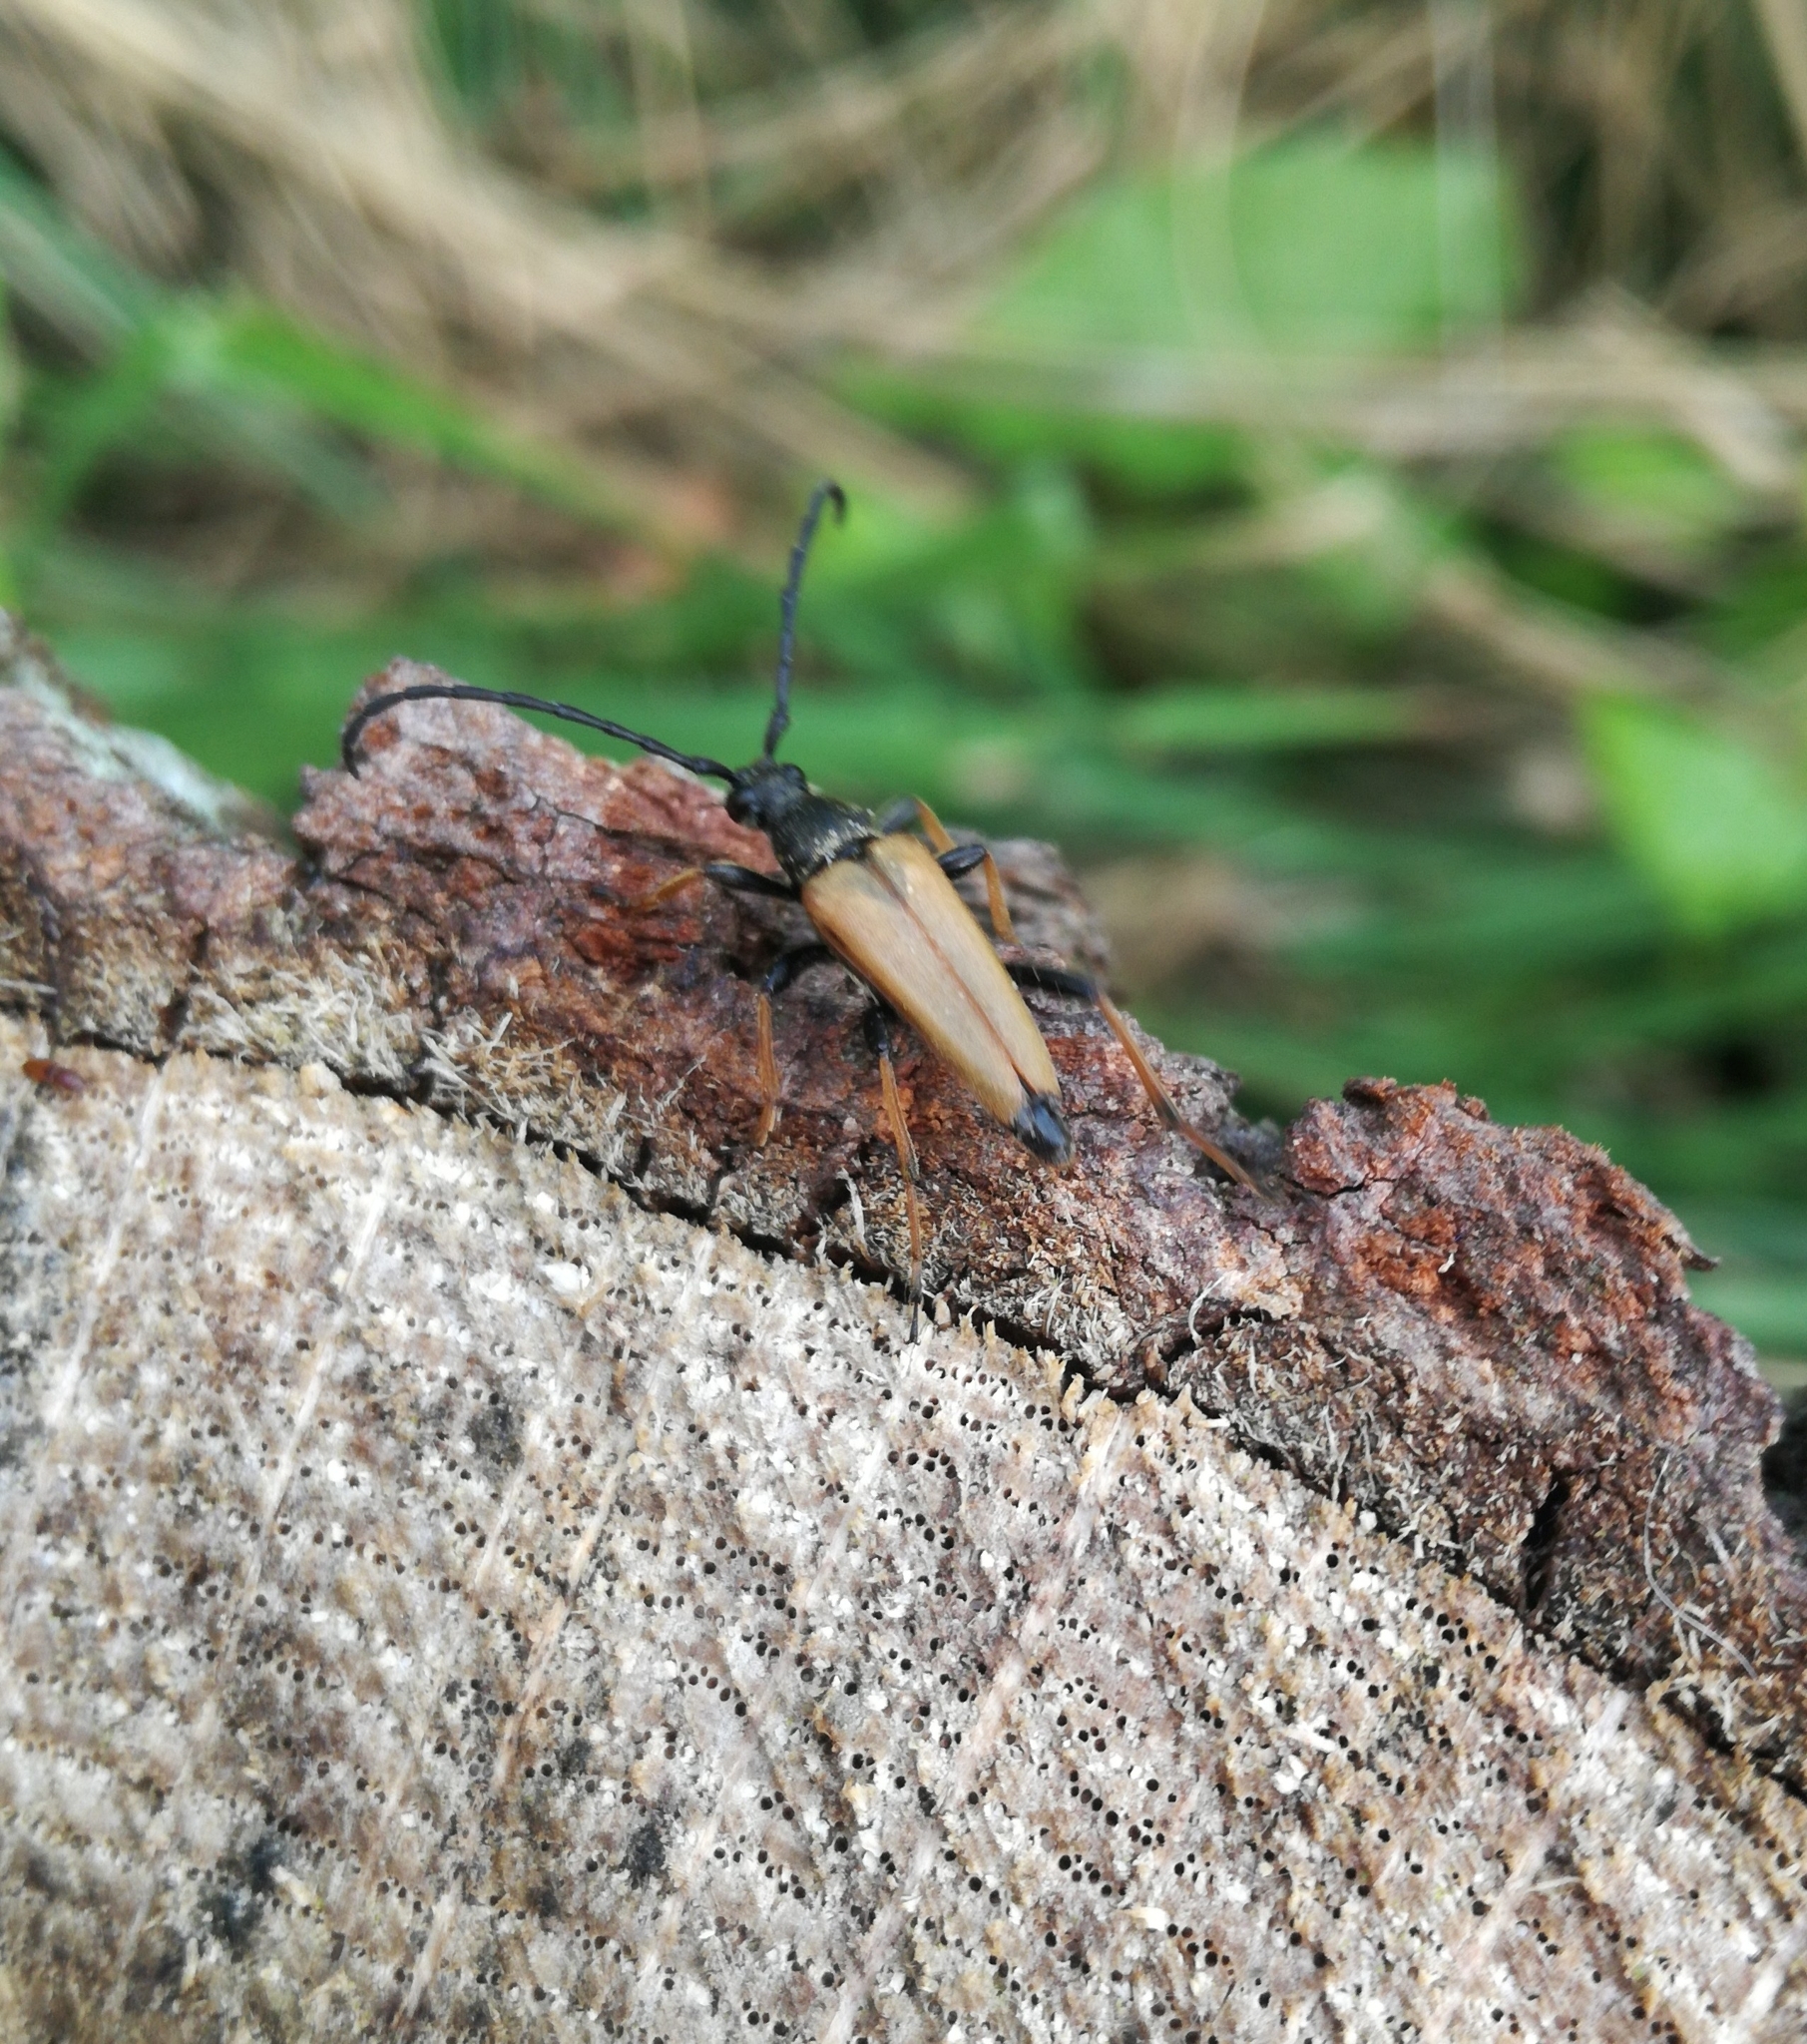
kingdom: Animalia
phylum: Arthropoda
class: Insecta
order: Coleoptera
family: Cerambycidae
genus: Stictoleptura
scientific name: Stictoleptura rubra
